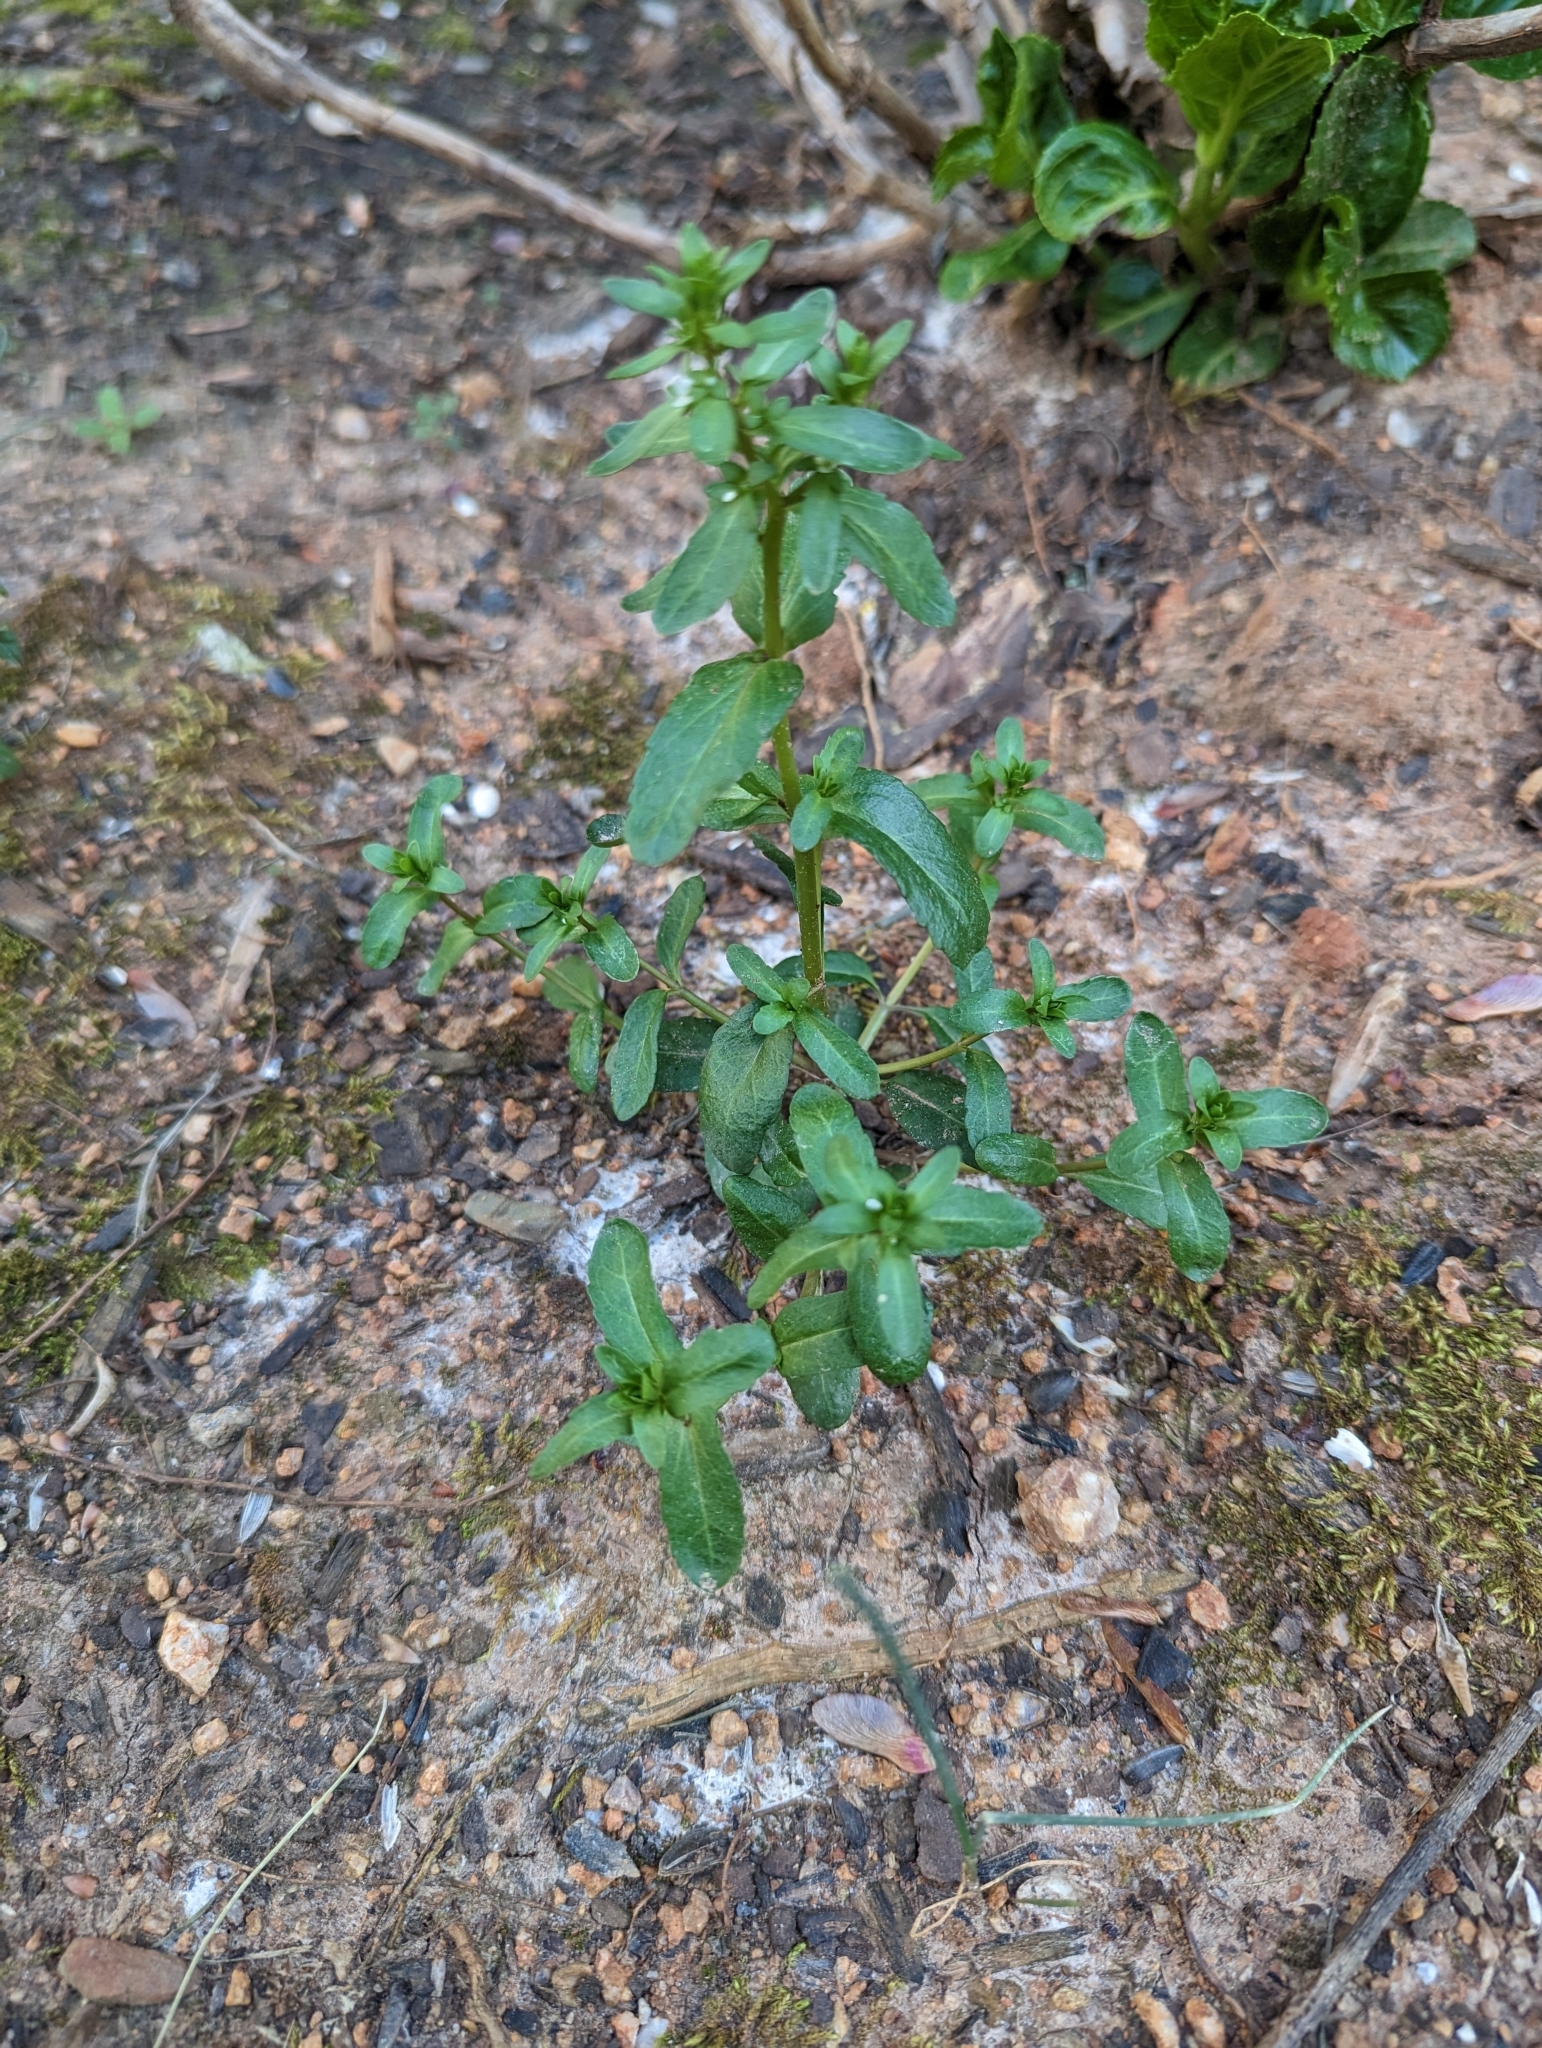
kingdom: Plantae
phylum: Tracheophyta
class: Magnoliopsida
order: Lamiales
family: Plantaginaceae
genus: Veronica
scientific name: Veronica peregrina
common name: Neckweed
